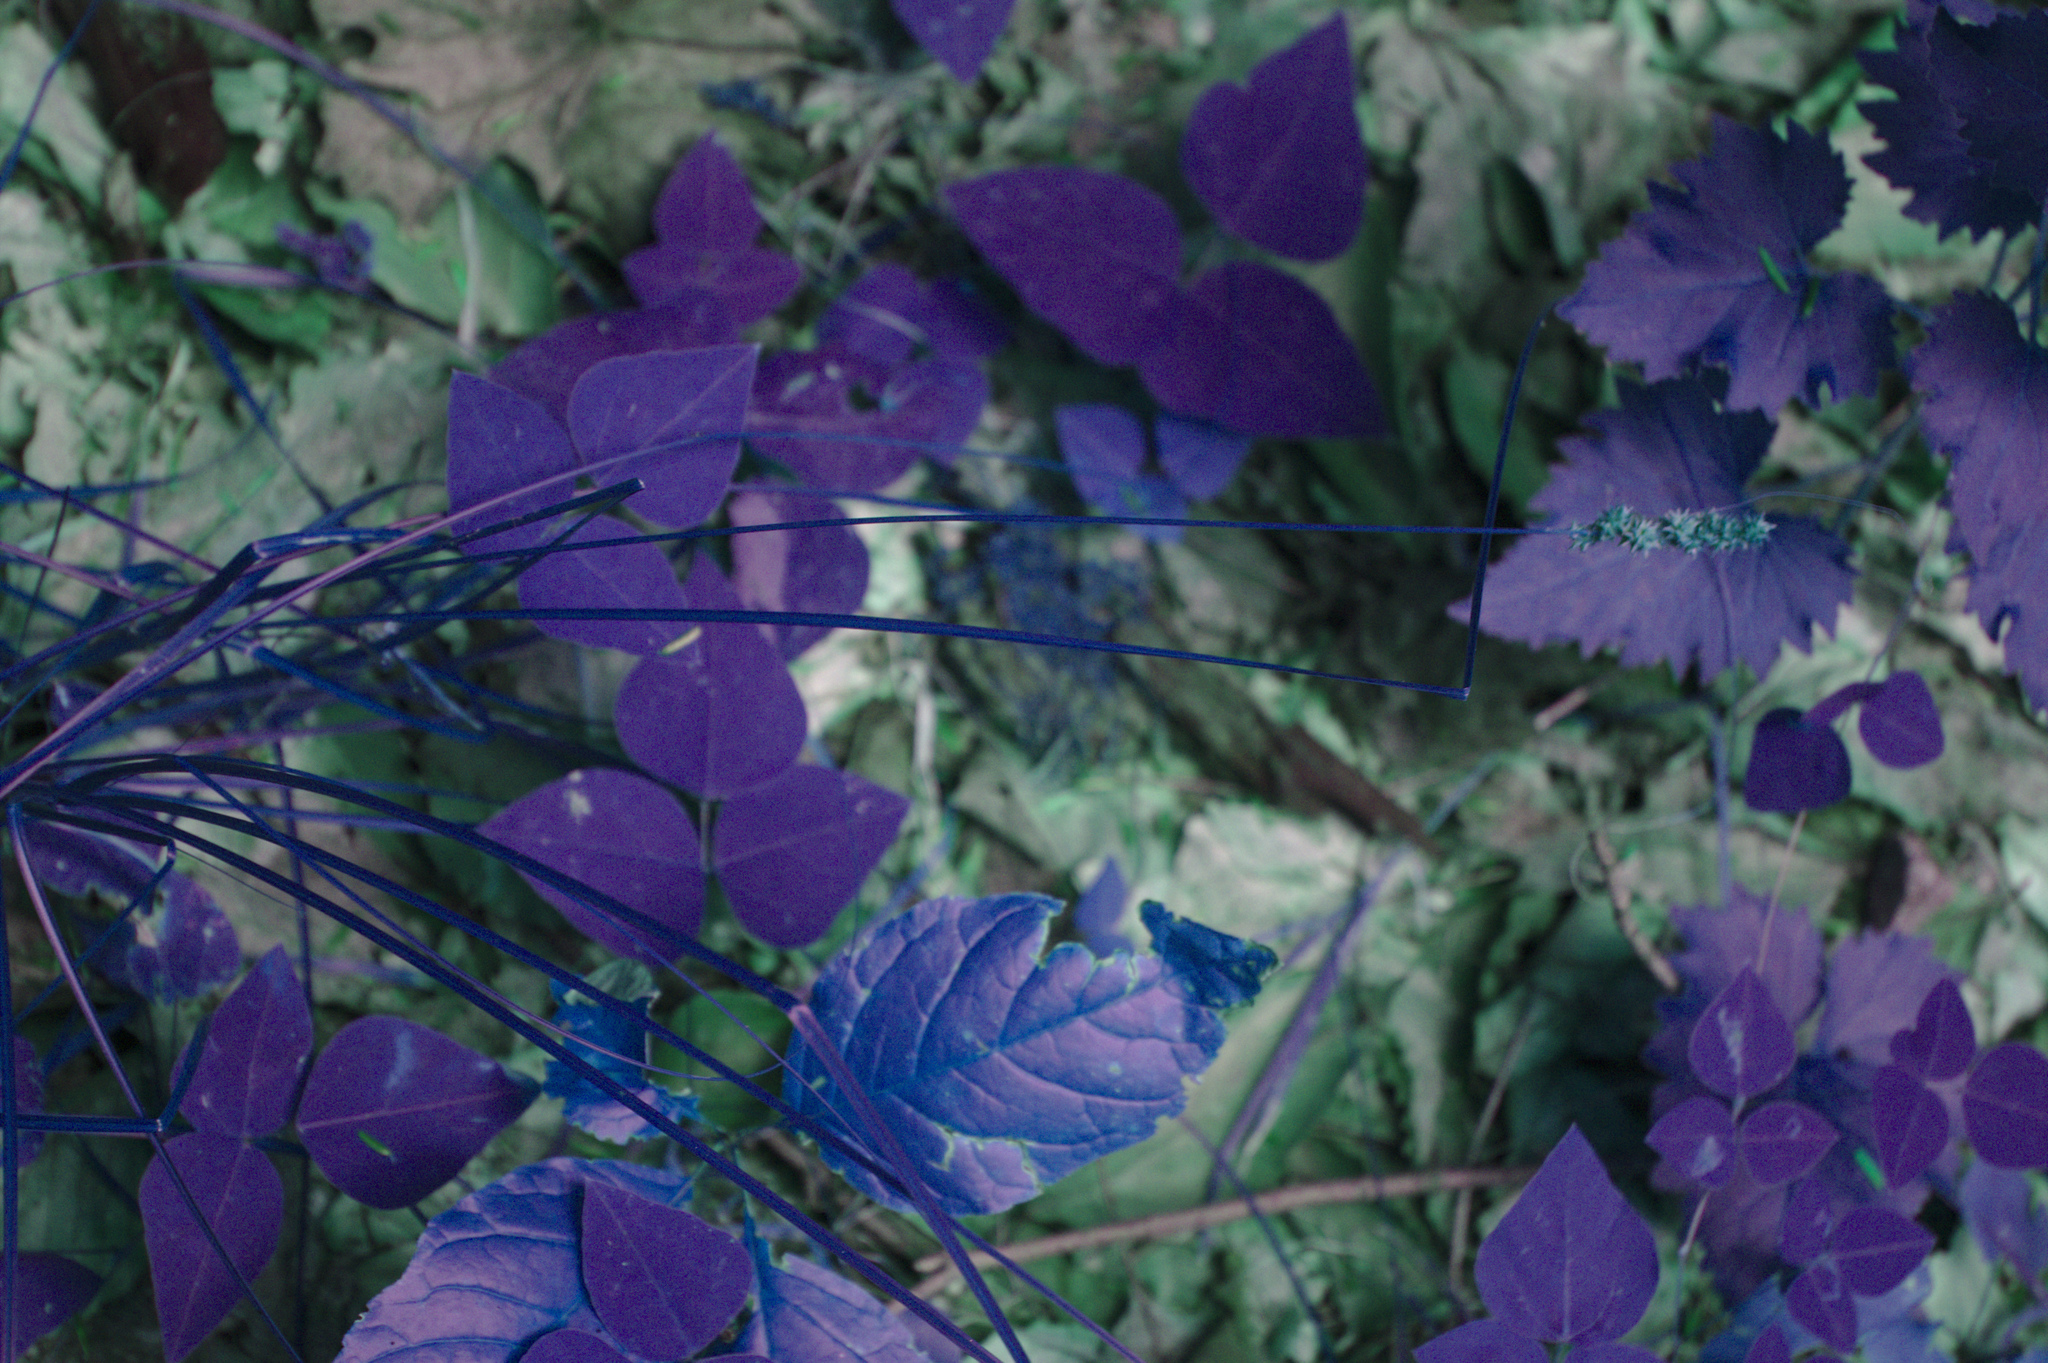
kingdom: Plantae
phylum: Tracheophyta
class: Magnoliopsida
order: Fabales
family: Fabaceae
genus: Amphicarpaea
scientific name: Amphicarpaea bracteata
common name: American hog peanut
